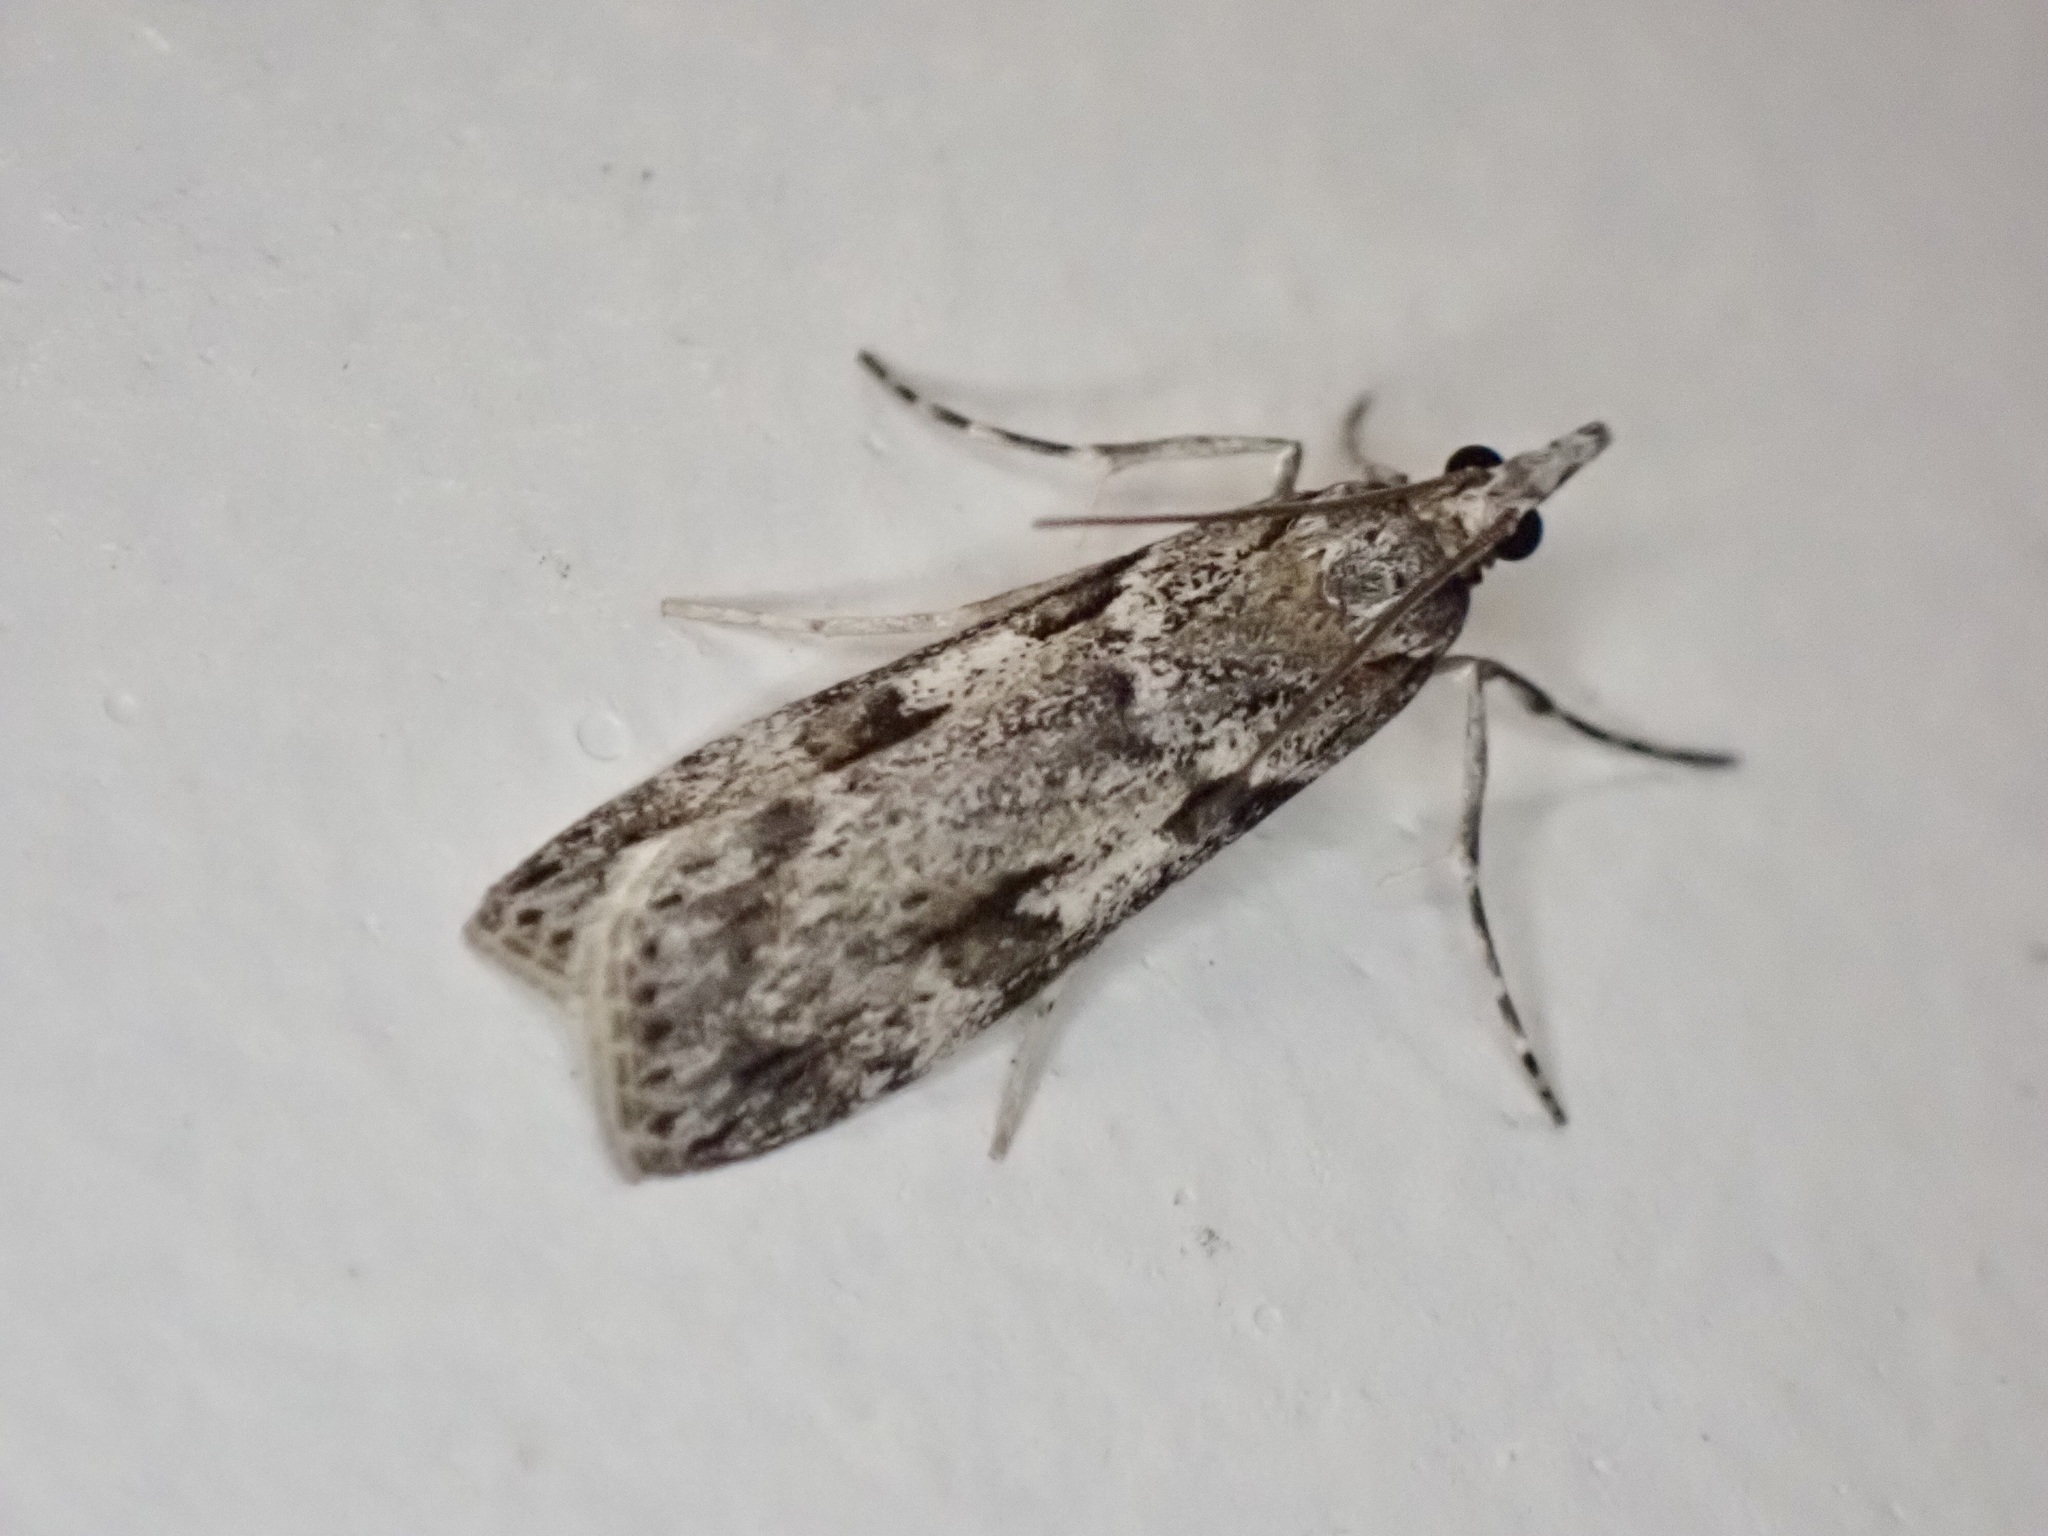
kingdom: Animalia
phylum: Arthropoda
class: Insecta
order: Lepidoptera
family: Crambidae
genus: Scoparia
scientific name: Scoparia halopis
